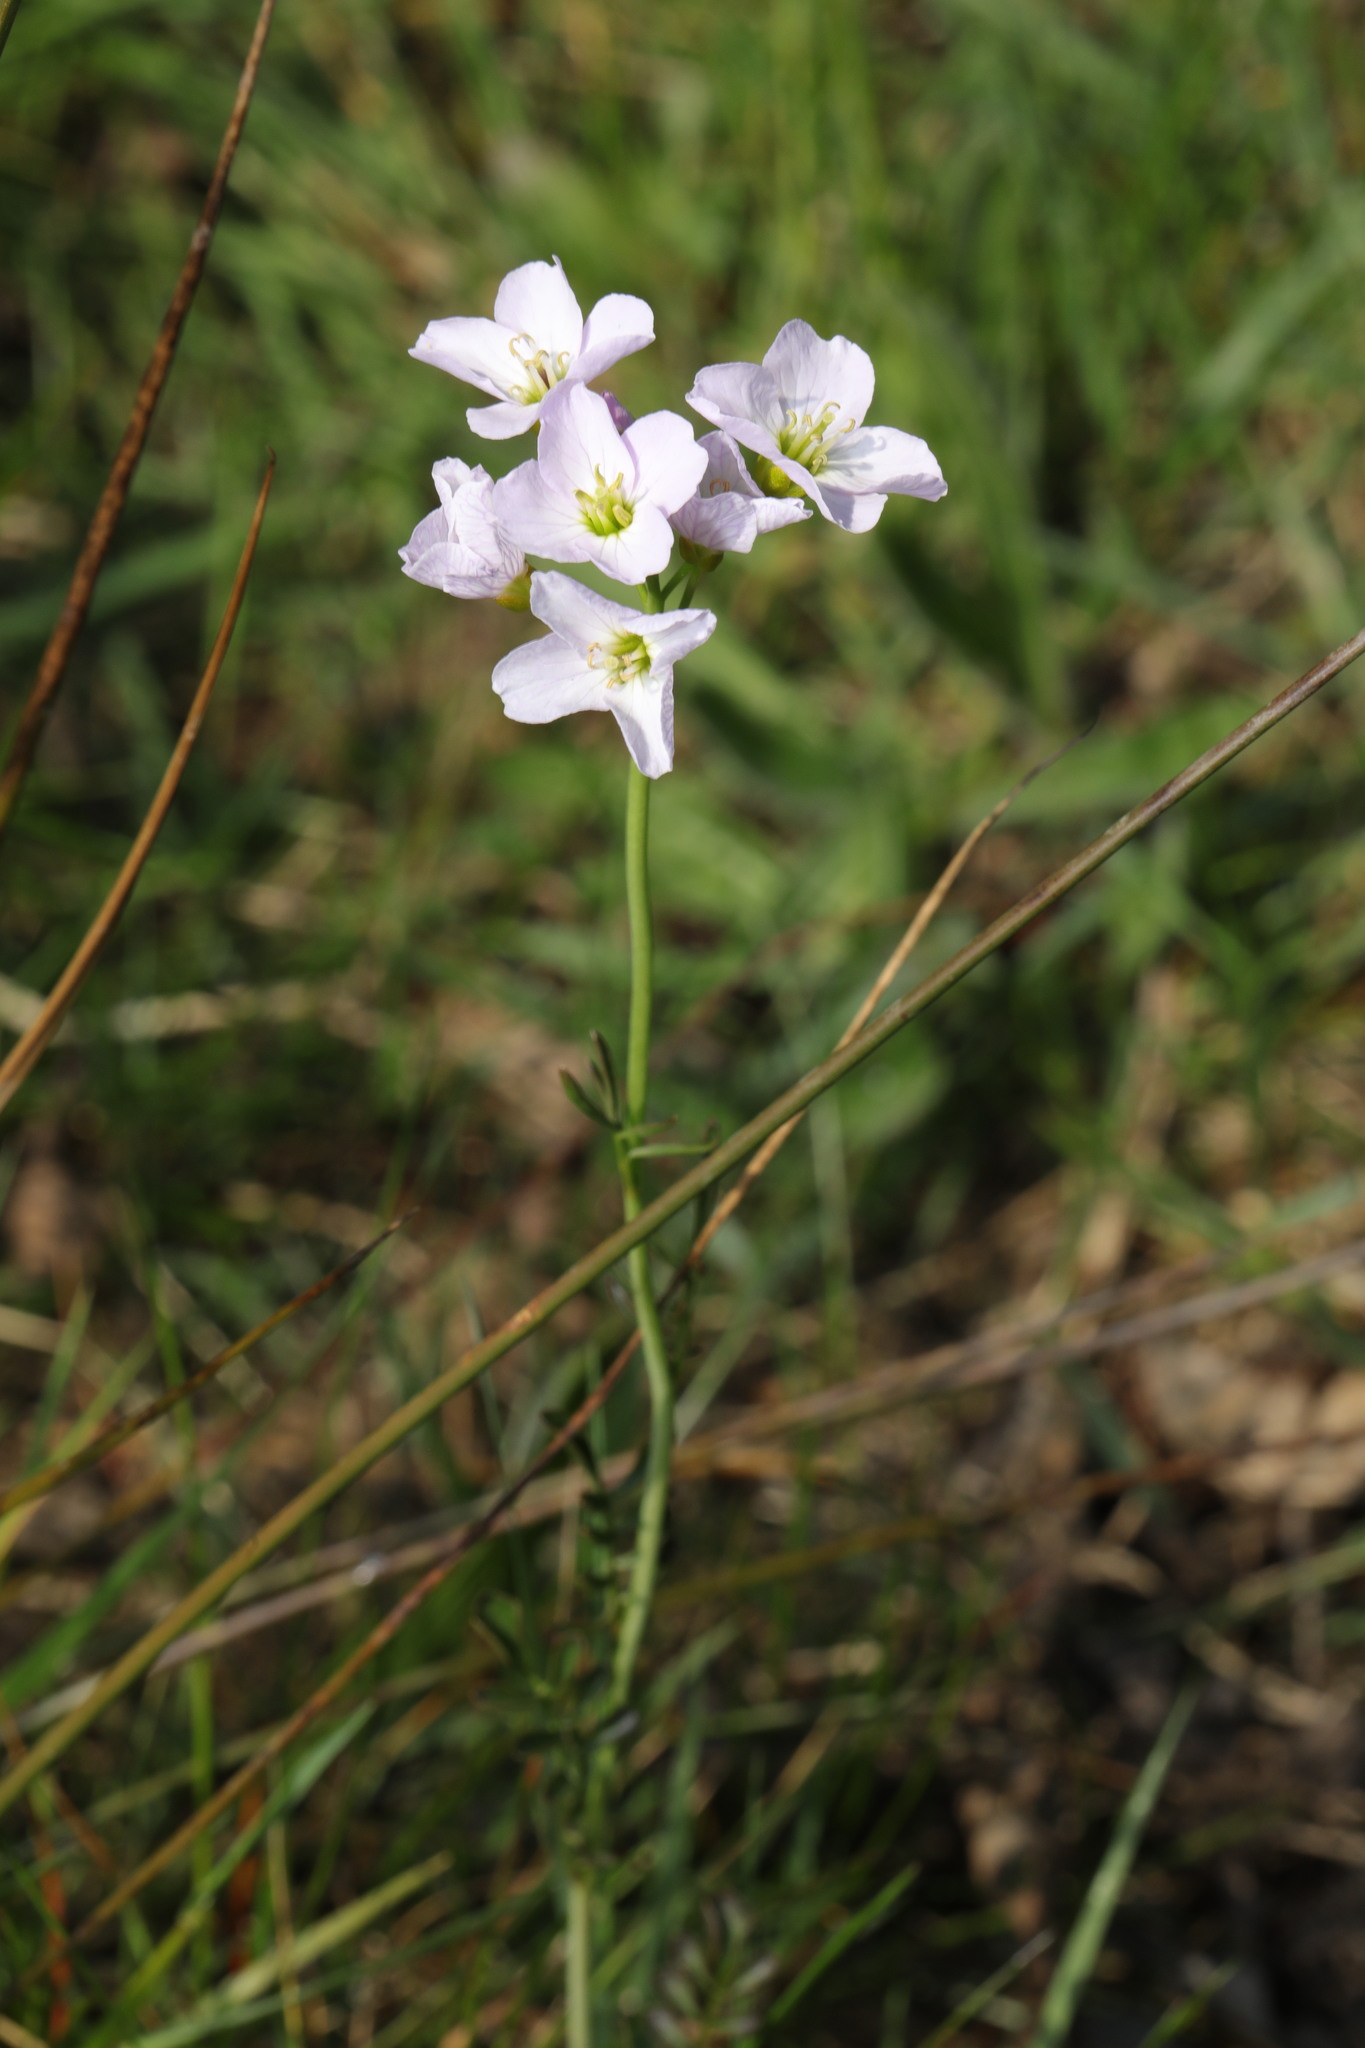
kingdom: Plantae
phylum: Tracheophyta
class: Magnoliopsida
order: Brassicales
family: Brassicaceae
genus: Cardamine
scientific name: Cardamine pratensis
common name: Cuckoo flower
